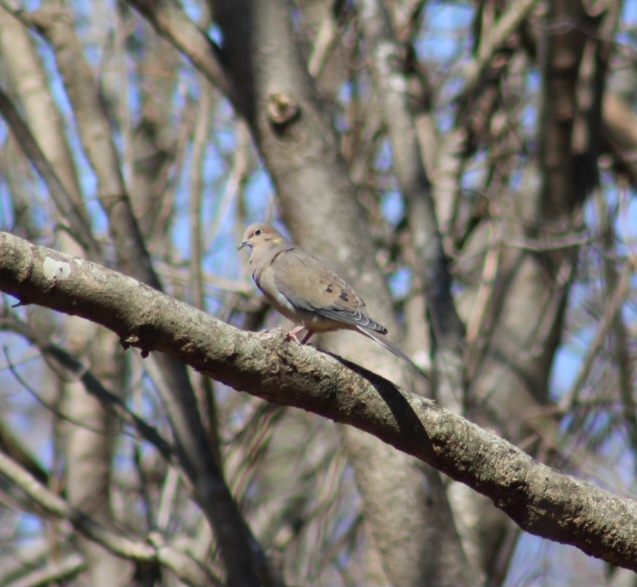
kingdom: Animalia
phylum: Chordata
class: Aves
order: Columbiformes
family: Columbidae
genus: Zenaida
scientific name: Zenaida macroura
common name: Mourning dove
